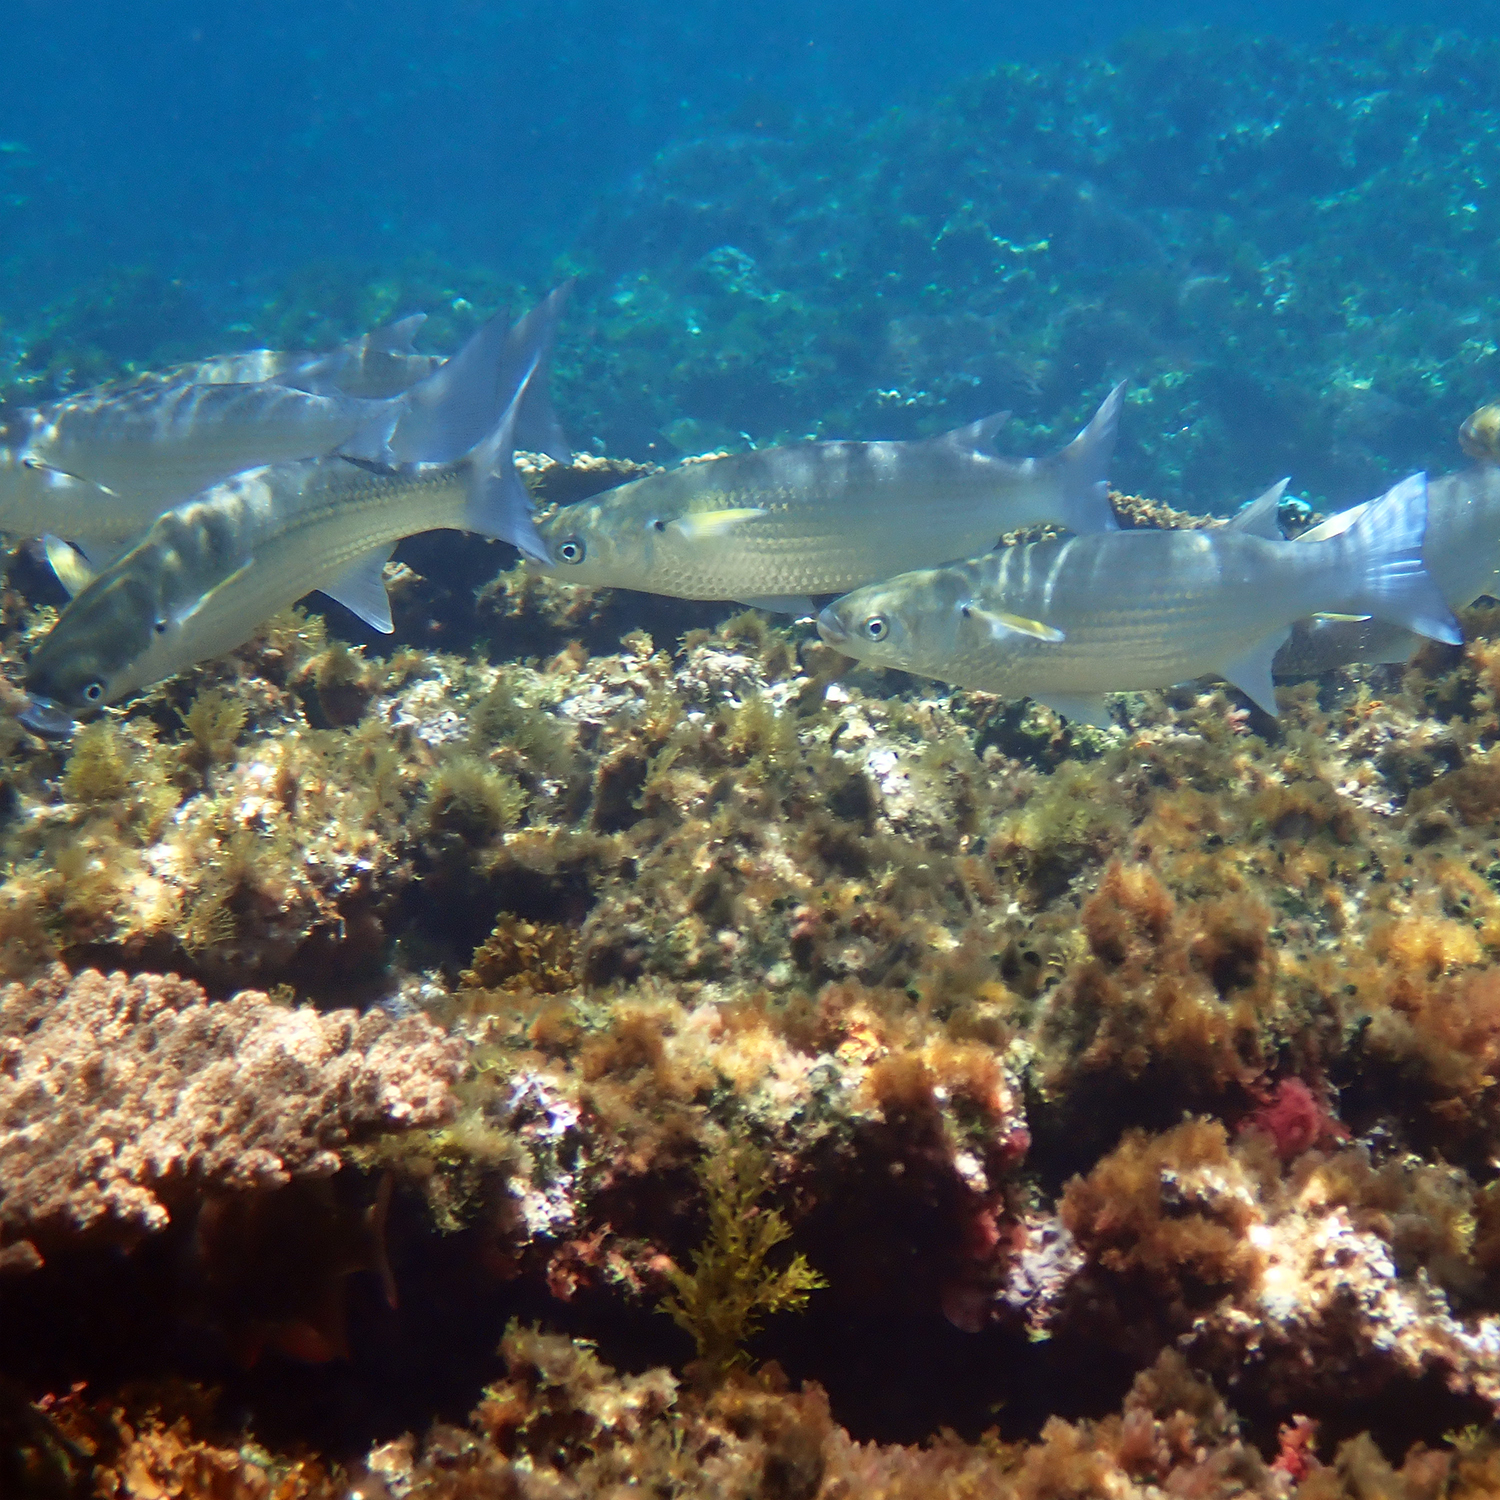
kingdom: Animalia
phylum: Chordata
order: Mugiliformes
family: Mugilidae
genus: Crenimugil
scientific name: Crenimugil crenilabis
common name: Fringelip mullet
